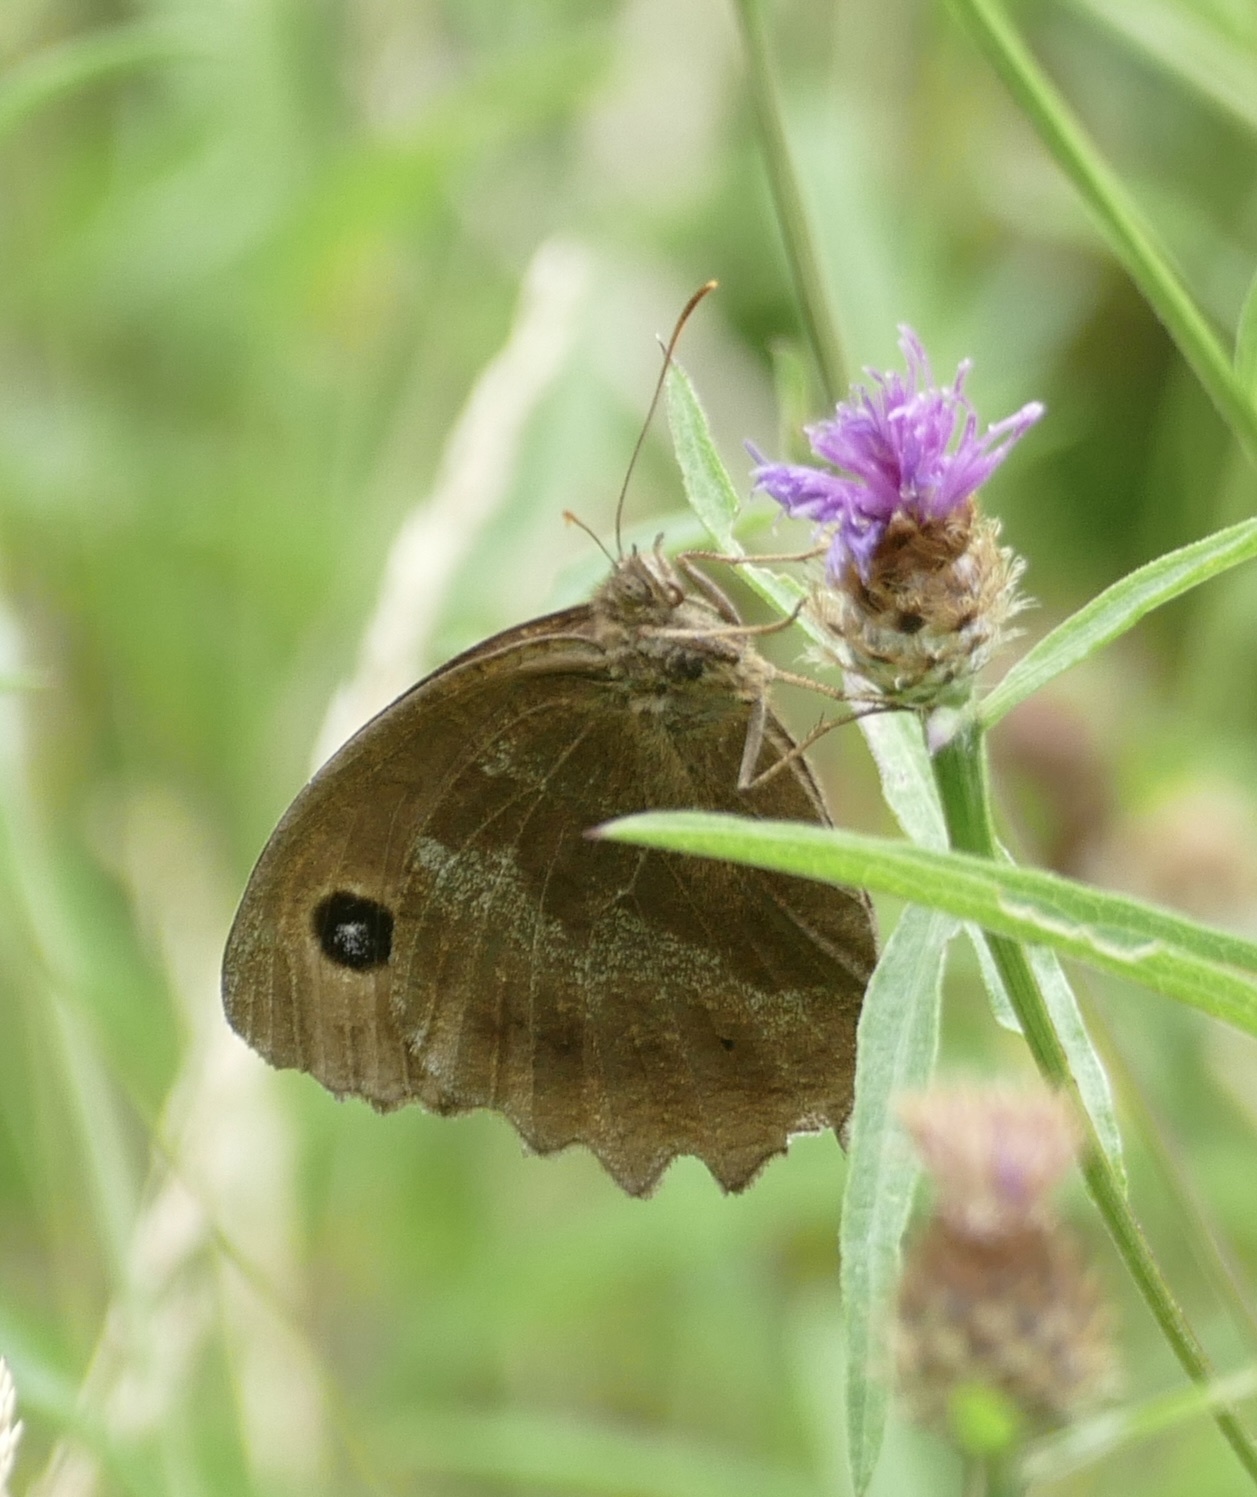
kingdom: Animalia
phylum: Arthropoda
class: Insecta
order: Lepidoptera
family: Nymphalidae
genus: Minois
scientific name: Minois dryas
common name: Dryad
